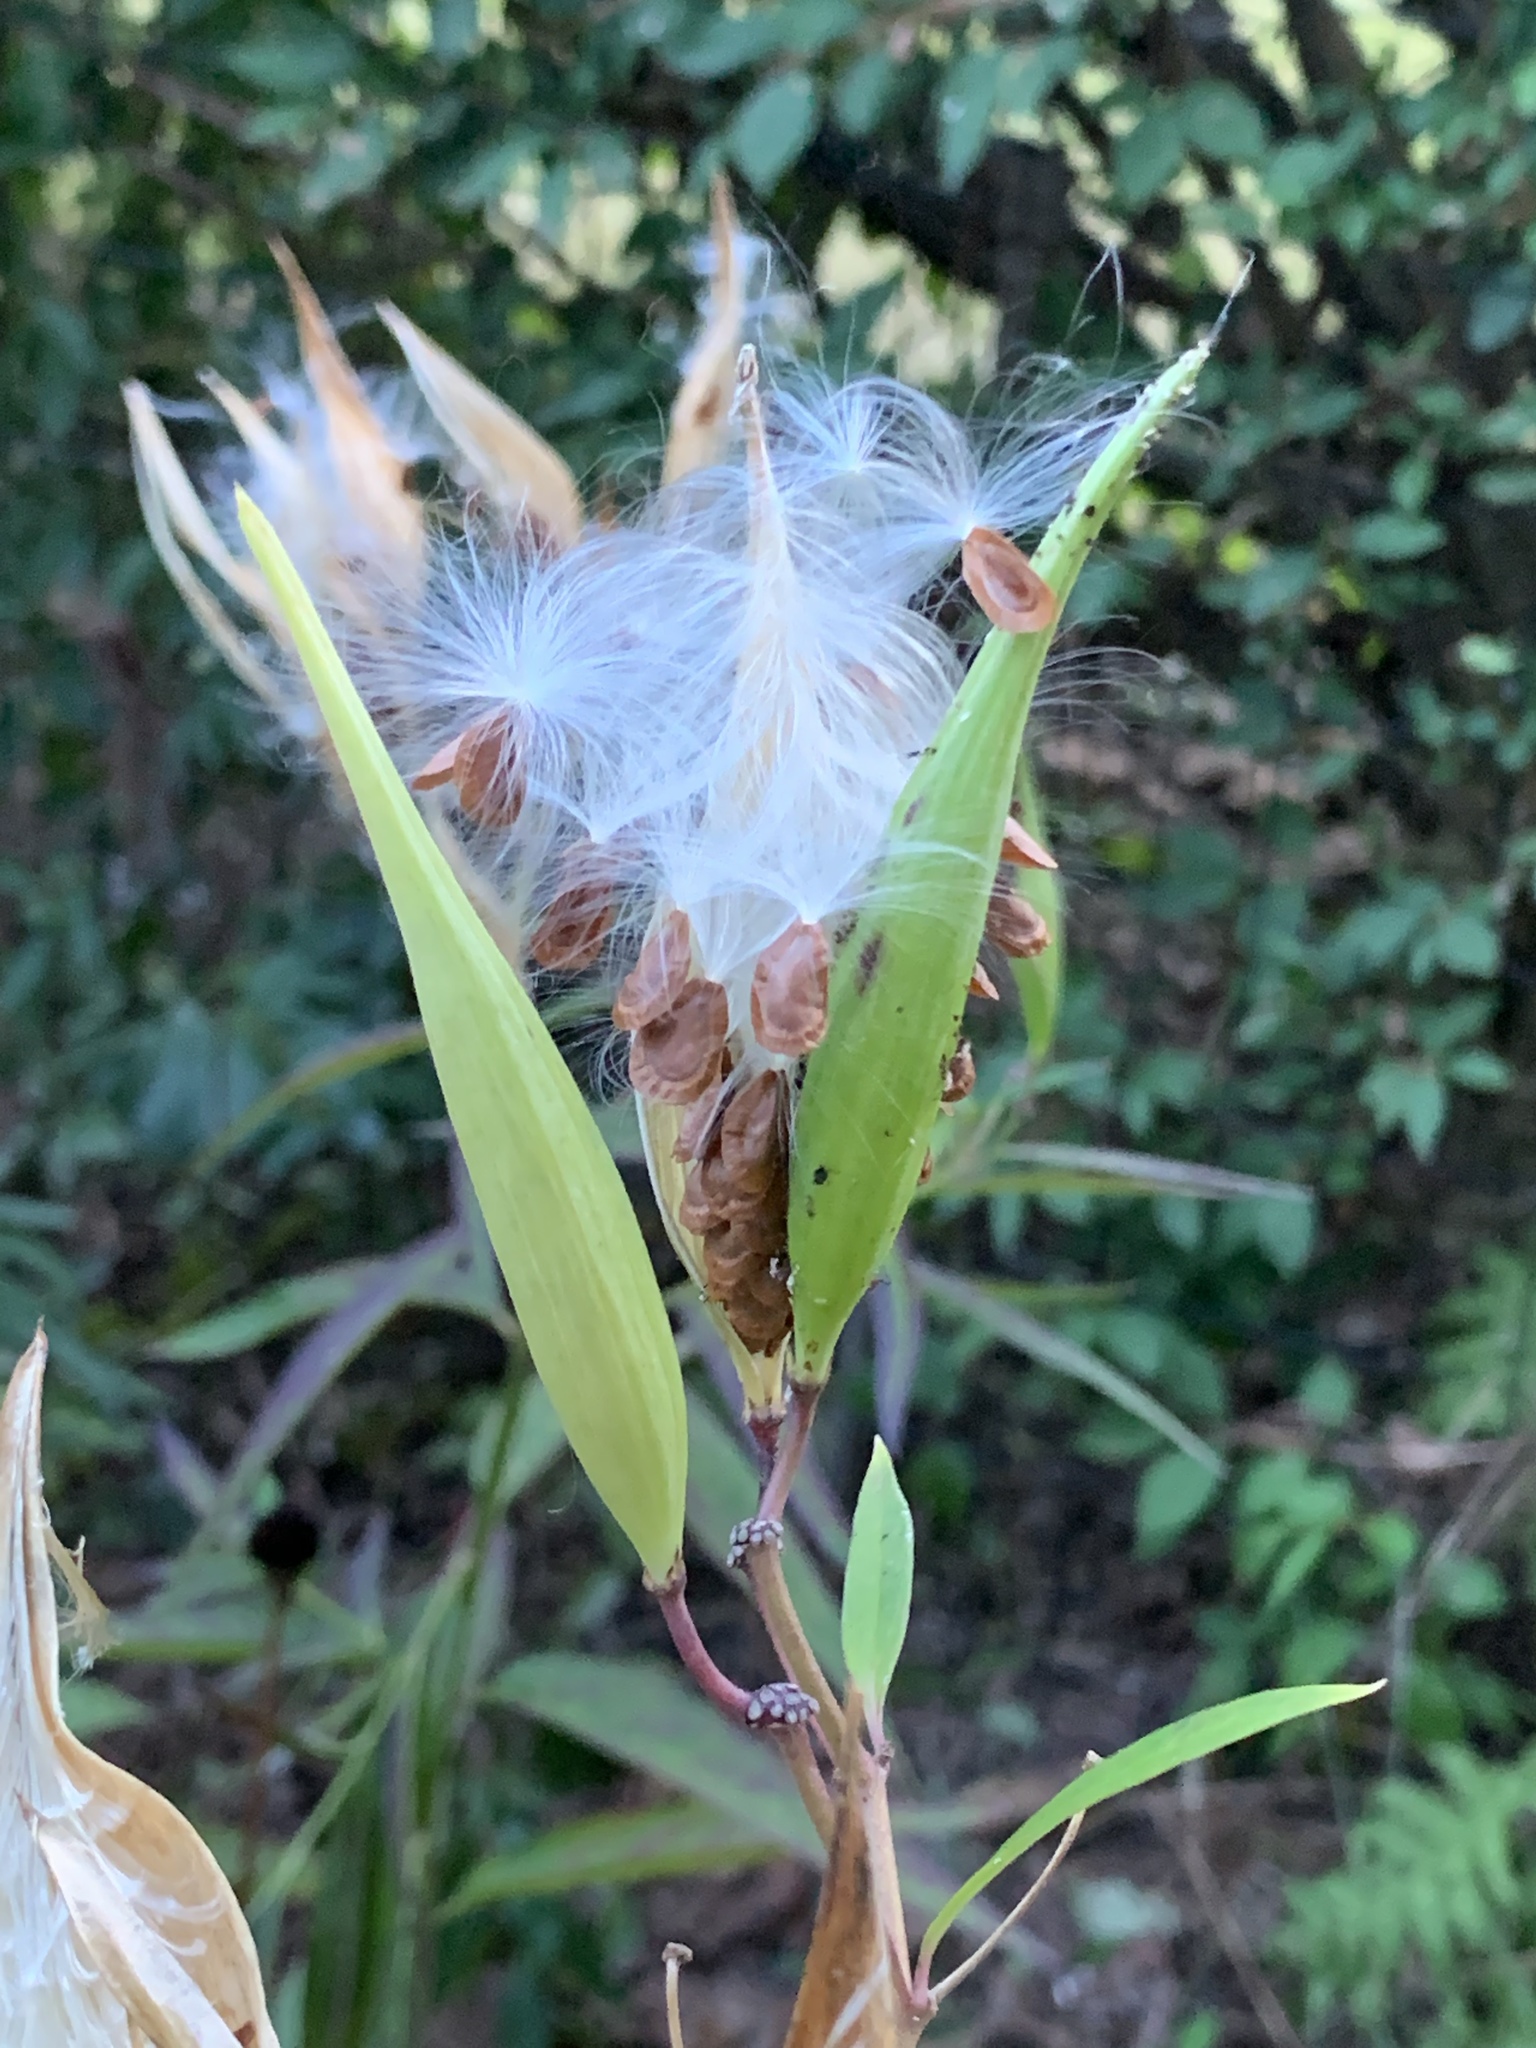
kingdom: Plantae
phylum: Tracheophyta
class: Magnoliopsida
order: Gentianales
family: Apocynaceae
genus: Asclepias
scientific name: Asclepias incarnata
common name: Swamp milkweed
